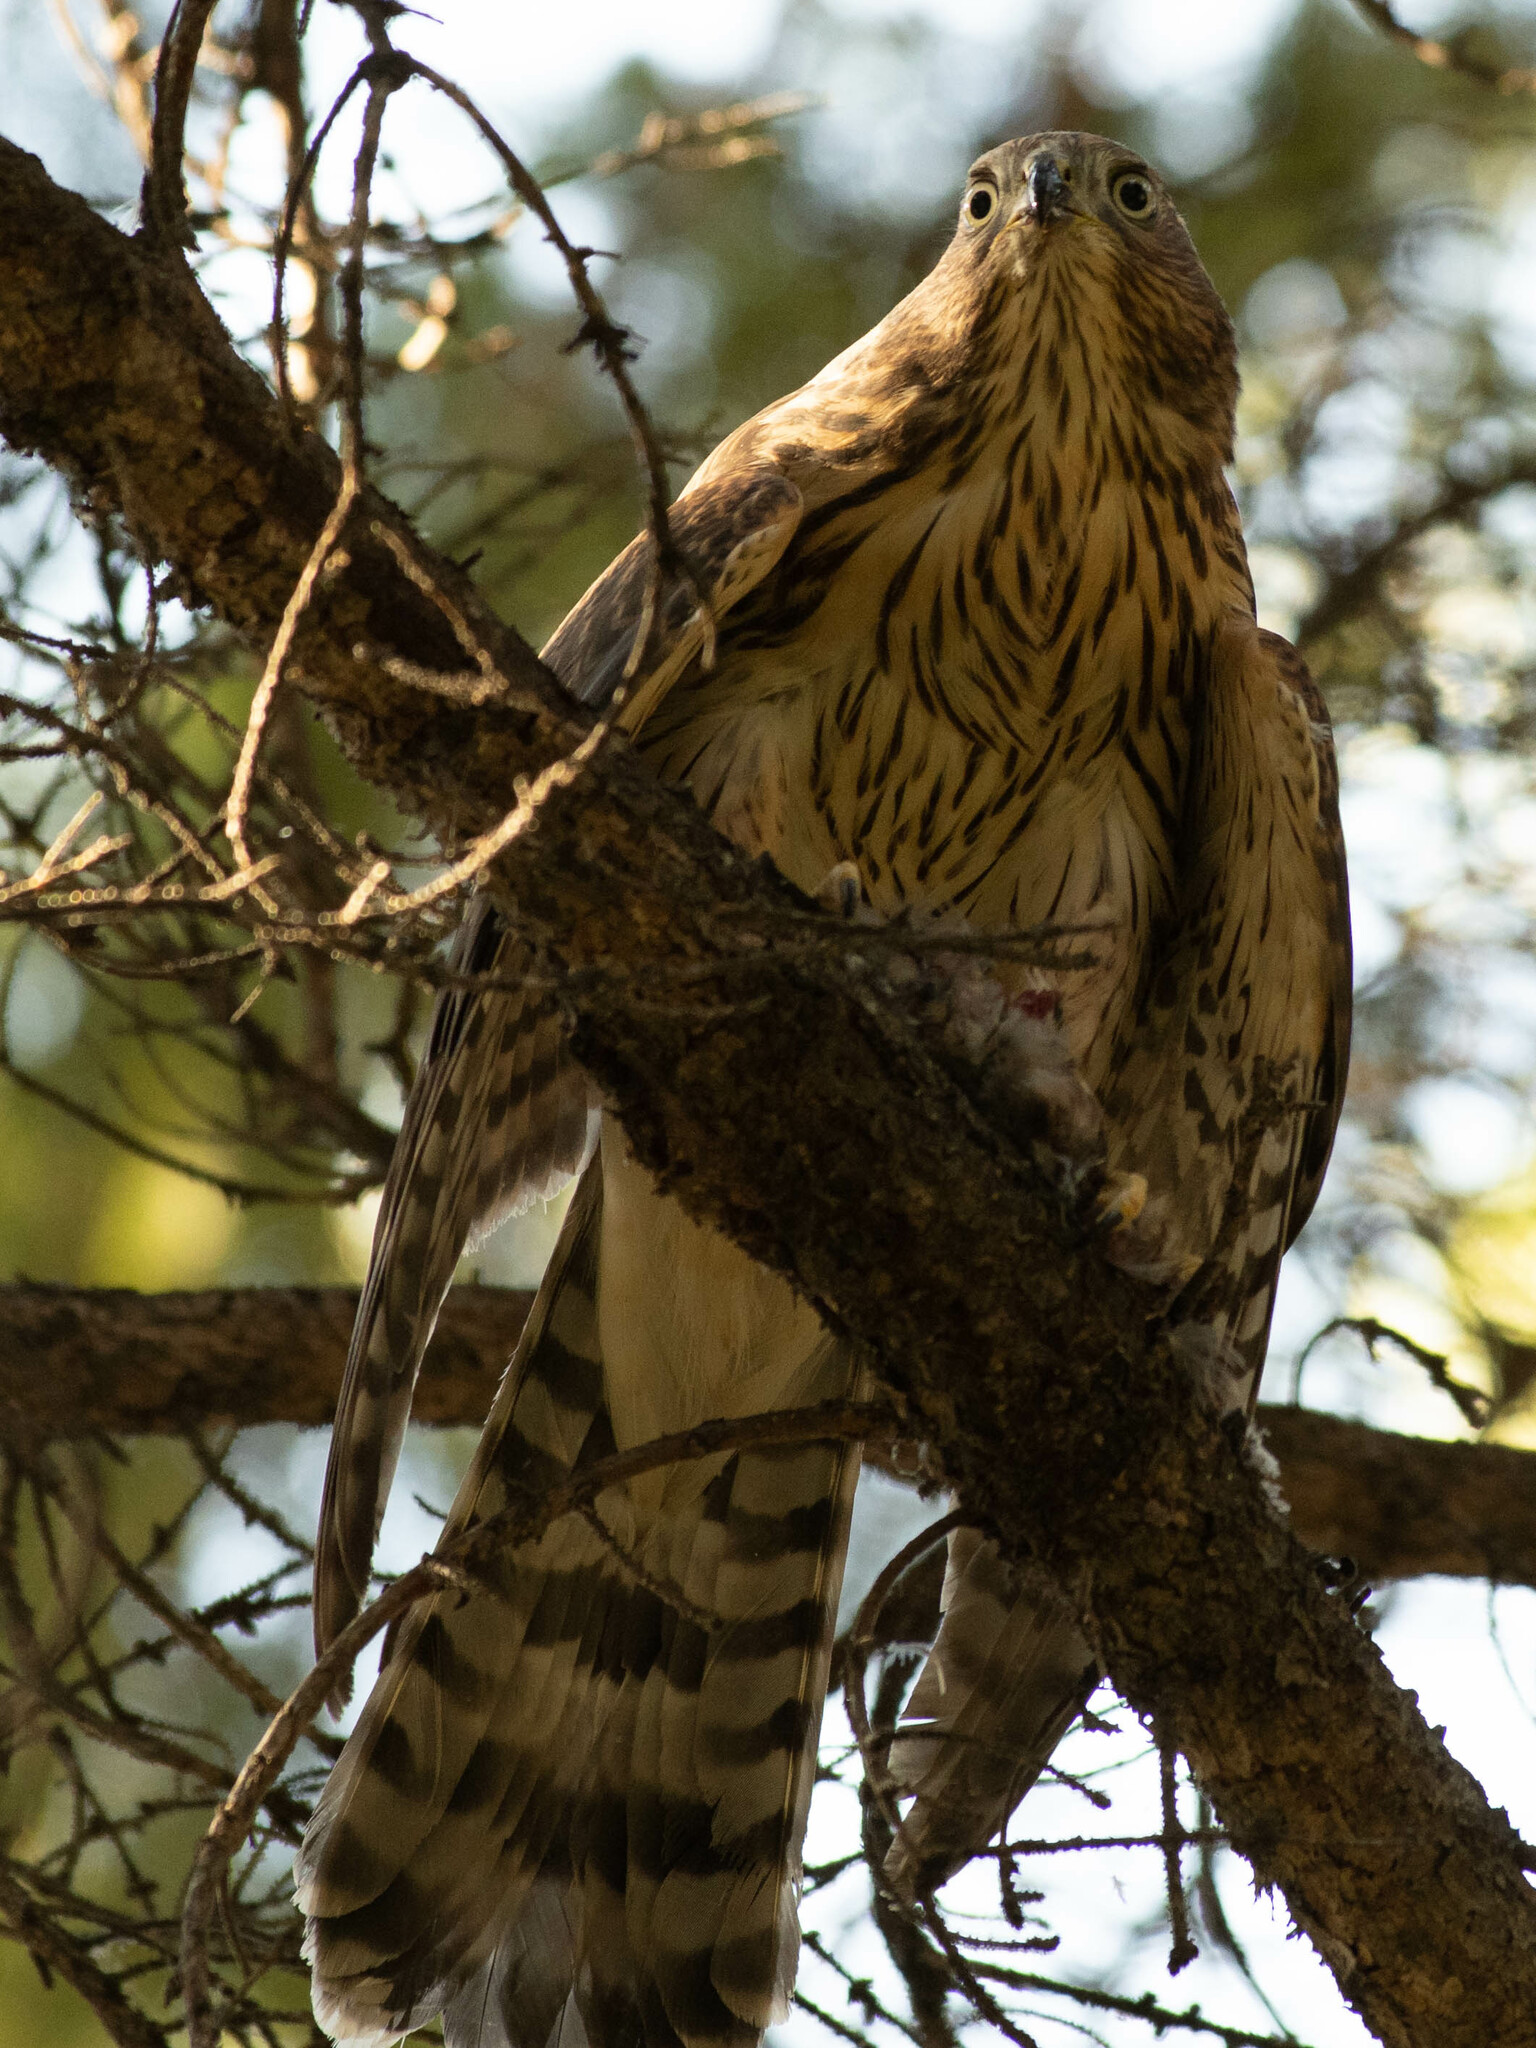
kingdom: Animalia
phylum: Chordata
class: Aves
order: Accipitriformes
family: Accipitridae
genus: Accipiter
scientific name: Accipiter cooperii
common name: Cooper's hawk
